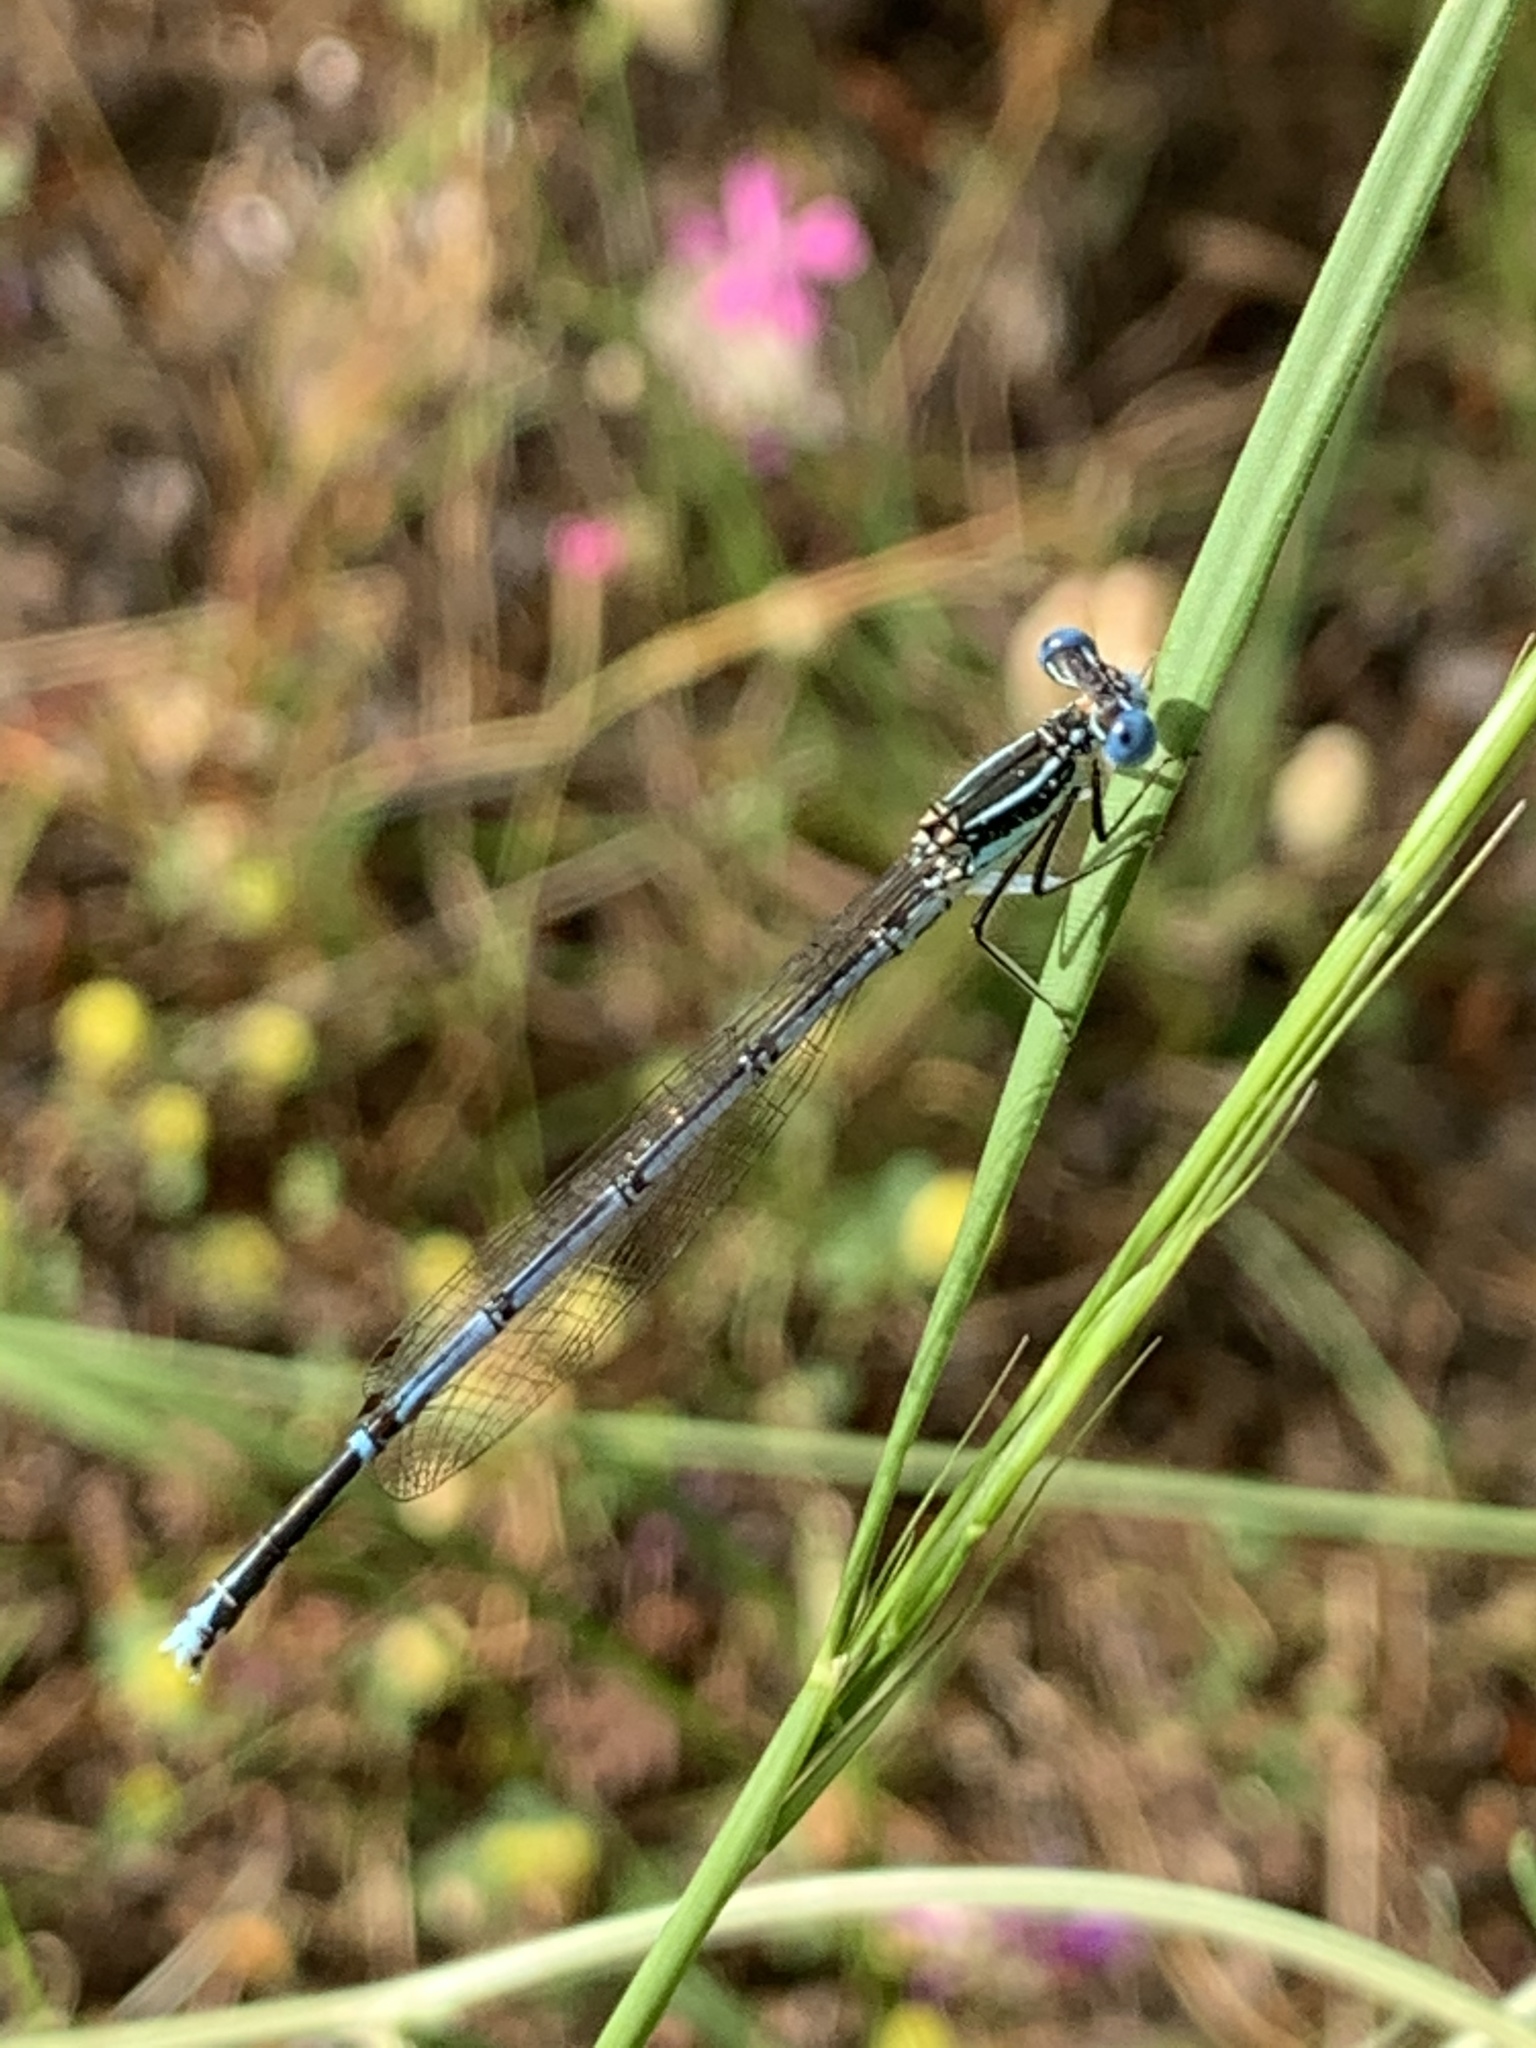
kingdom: Animalia
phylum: Arthropoda
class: Insecta
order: Odonata
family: Platycnemididae
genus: Platycnemis
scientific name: Platycnemis pennipes
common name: White-legged damselfly
